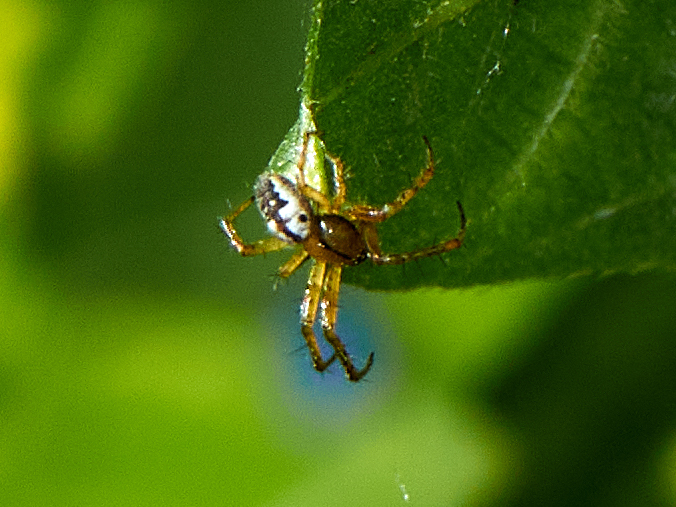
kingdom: Animalia
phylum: Arthropoda
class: Arachnida
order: Araneae
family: Araneidae
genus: Mangora
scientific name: Mangora acalypha
